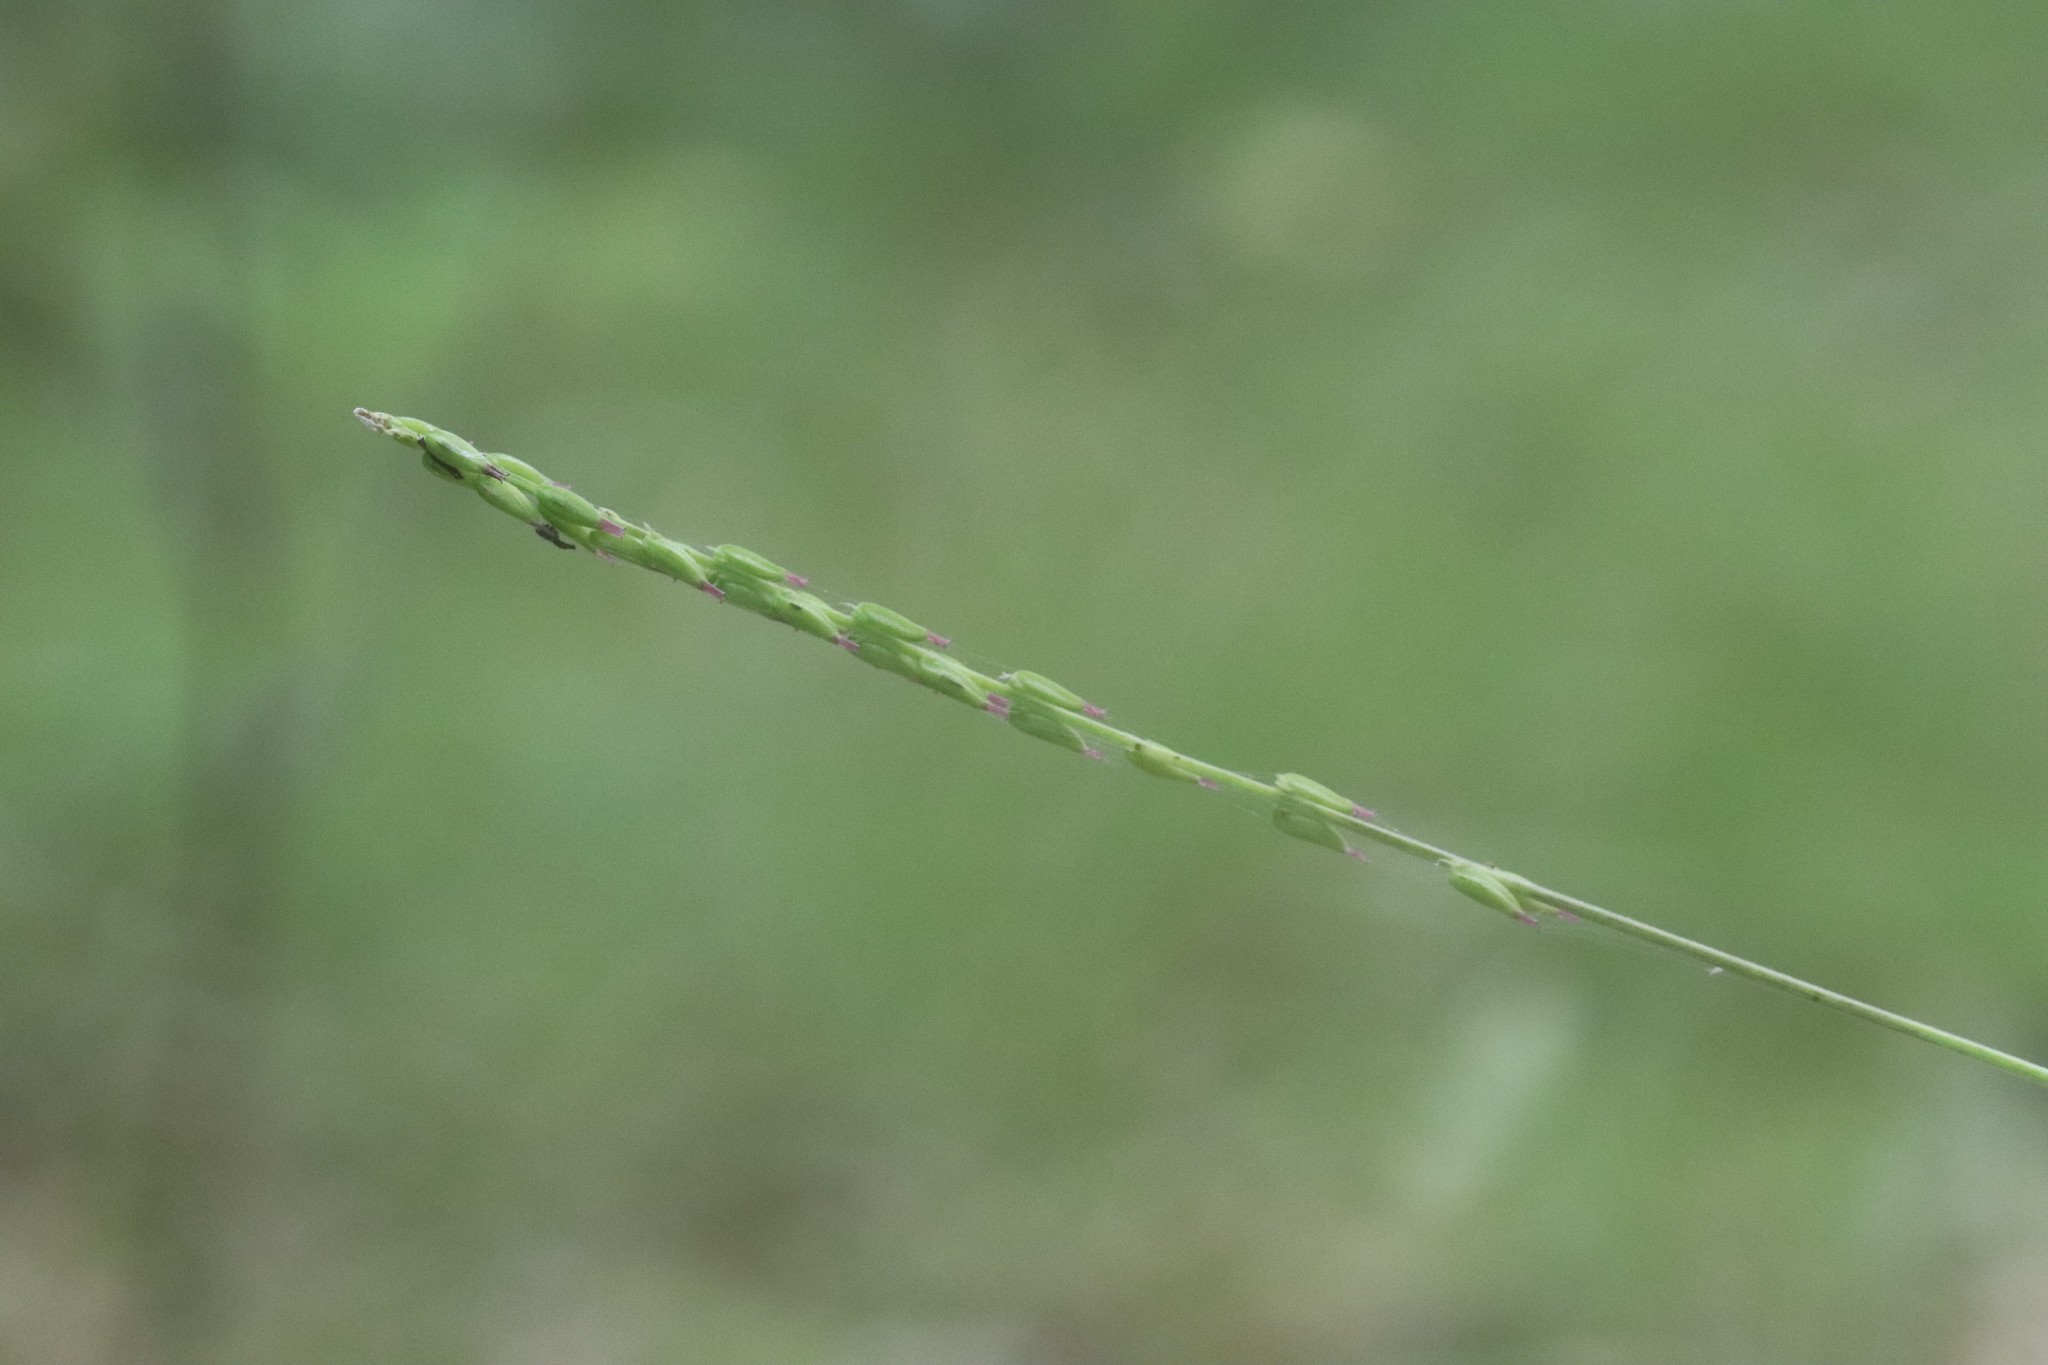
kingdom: Plantae
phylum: Tracheophyta
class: Magnoliopsida
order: Lamiales
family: Phrymaceae
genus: Phryma
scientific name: Phryma nana
